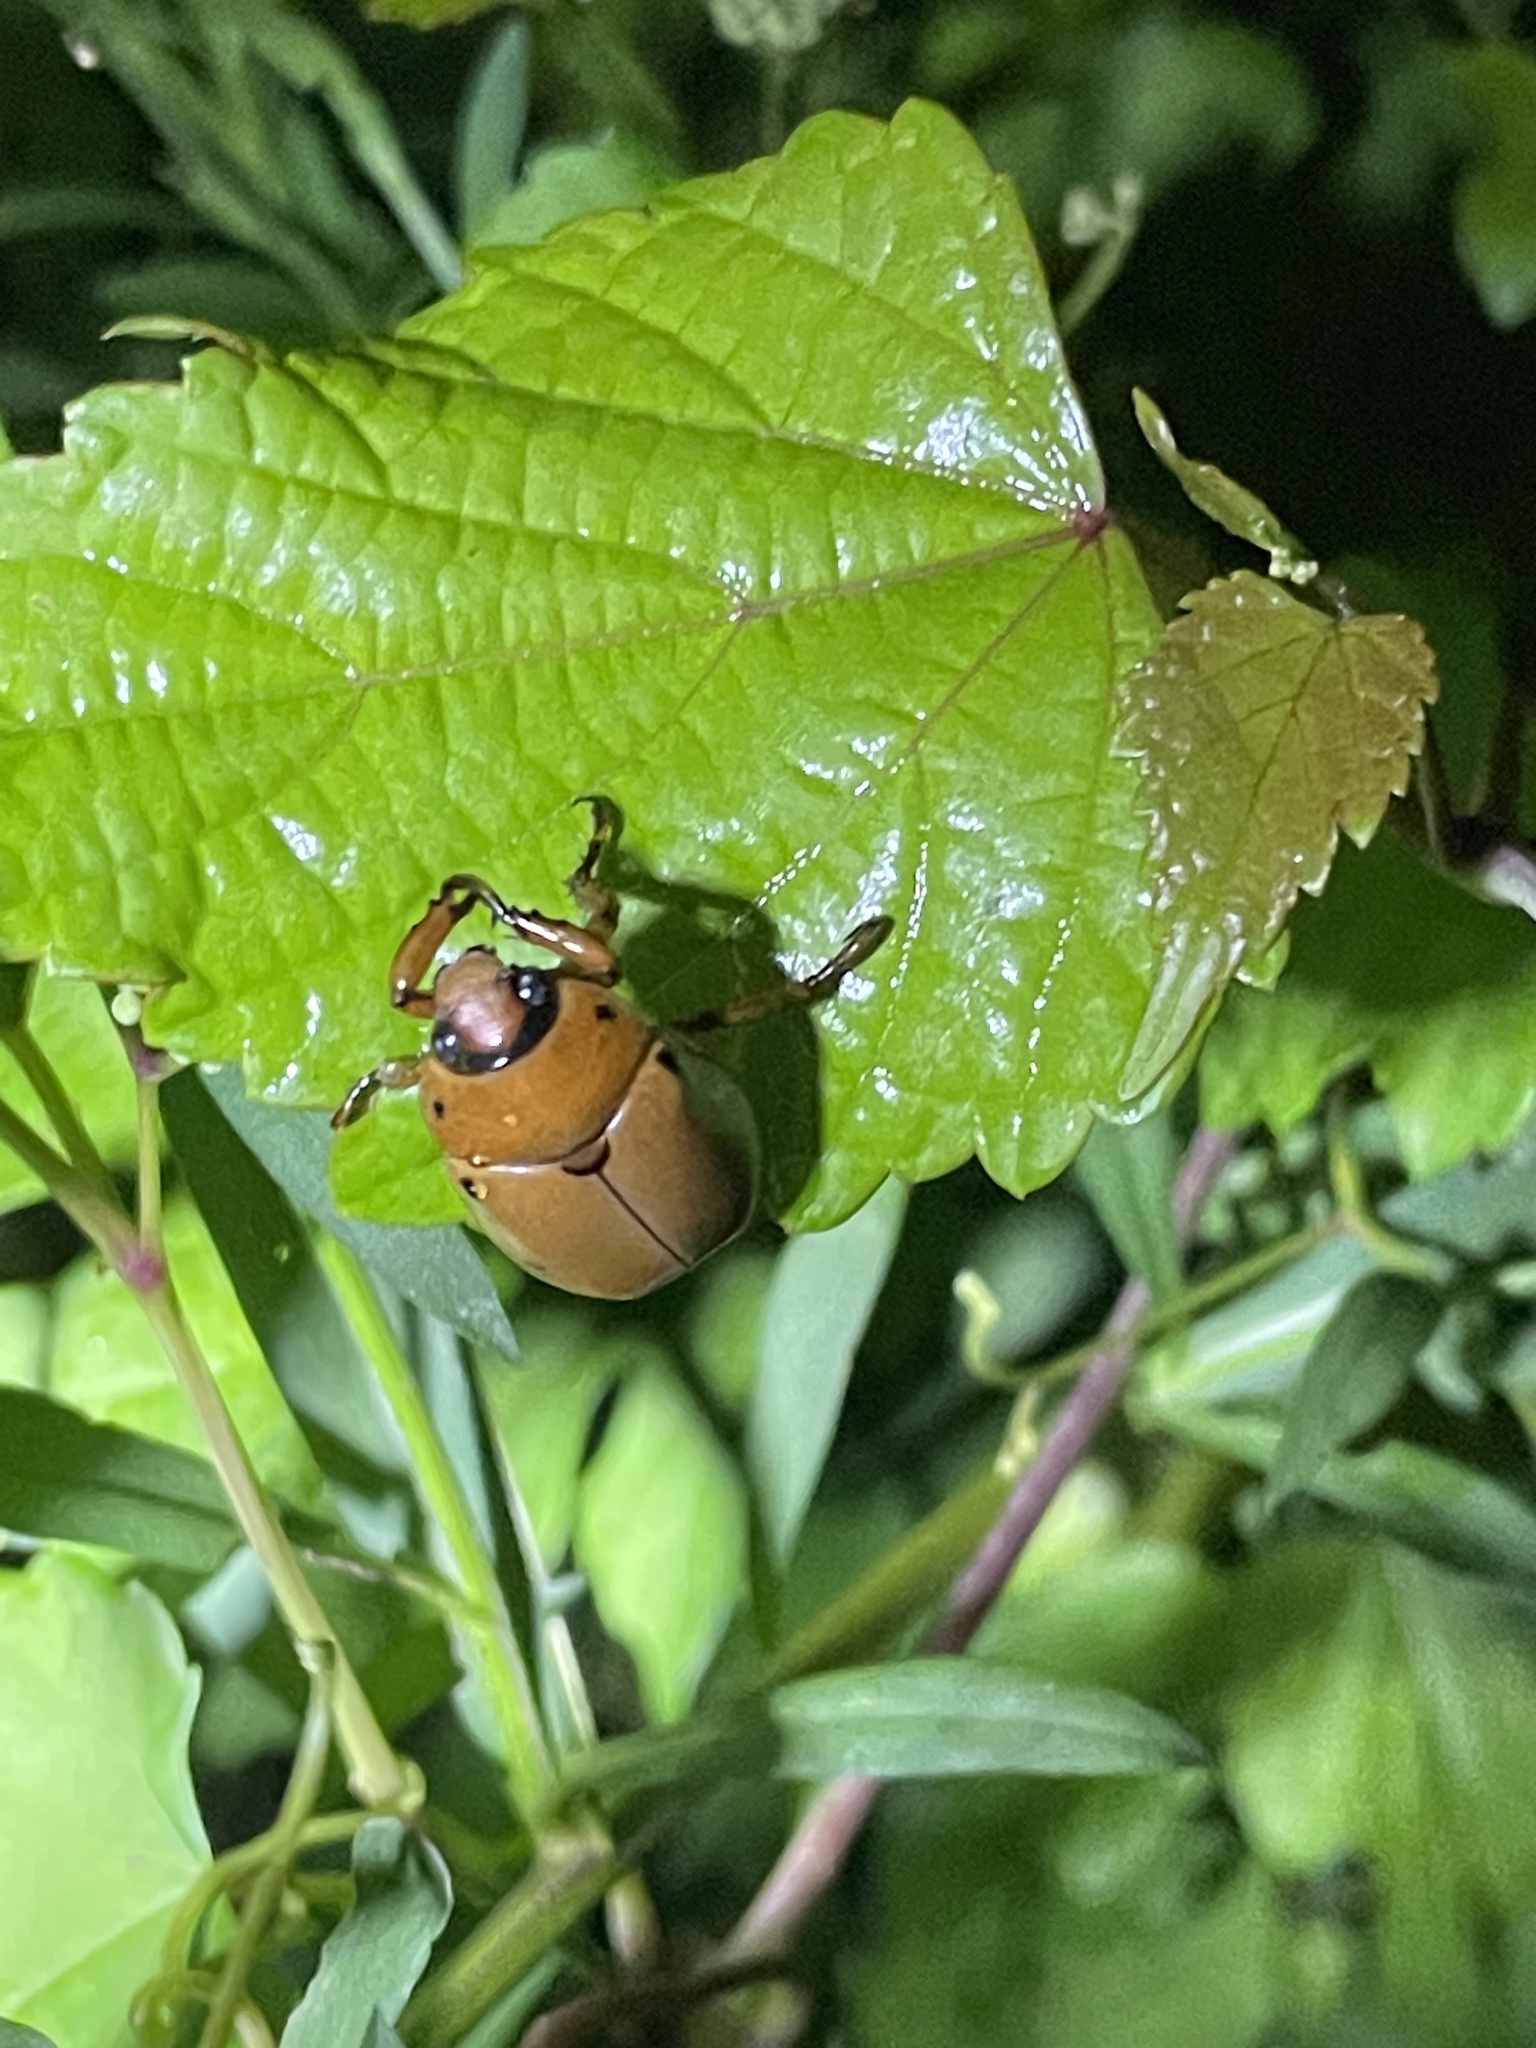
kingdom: Animalia
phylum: Arthropoda
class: Insecta
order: Coleoptera
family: Scarabaeidae
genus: Pelidnota
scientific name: Pelidnota punctata
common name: Grapevine beetle
